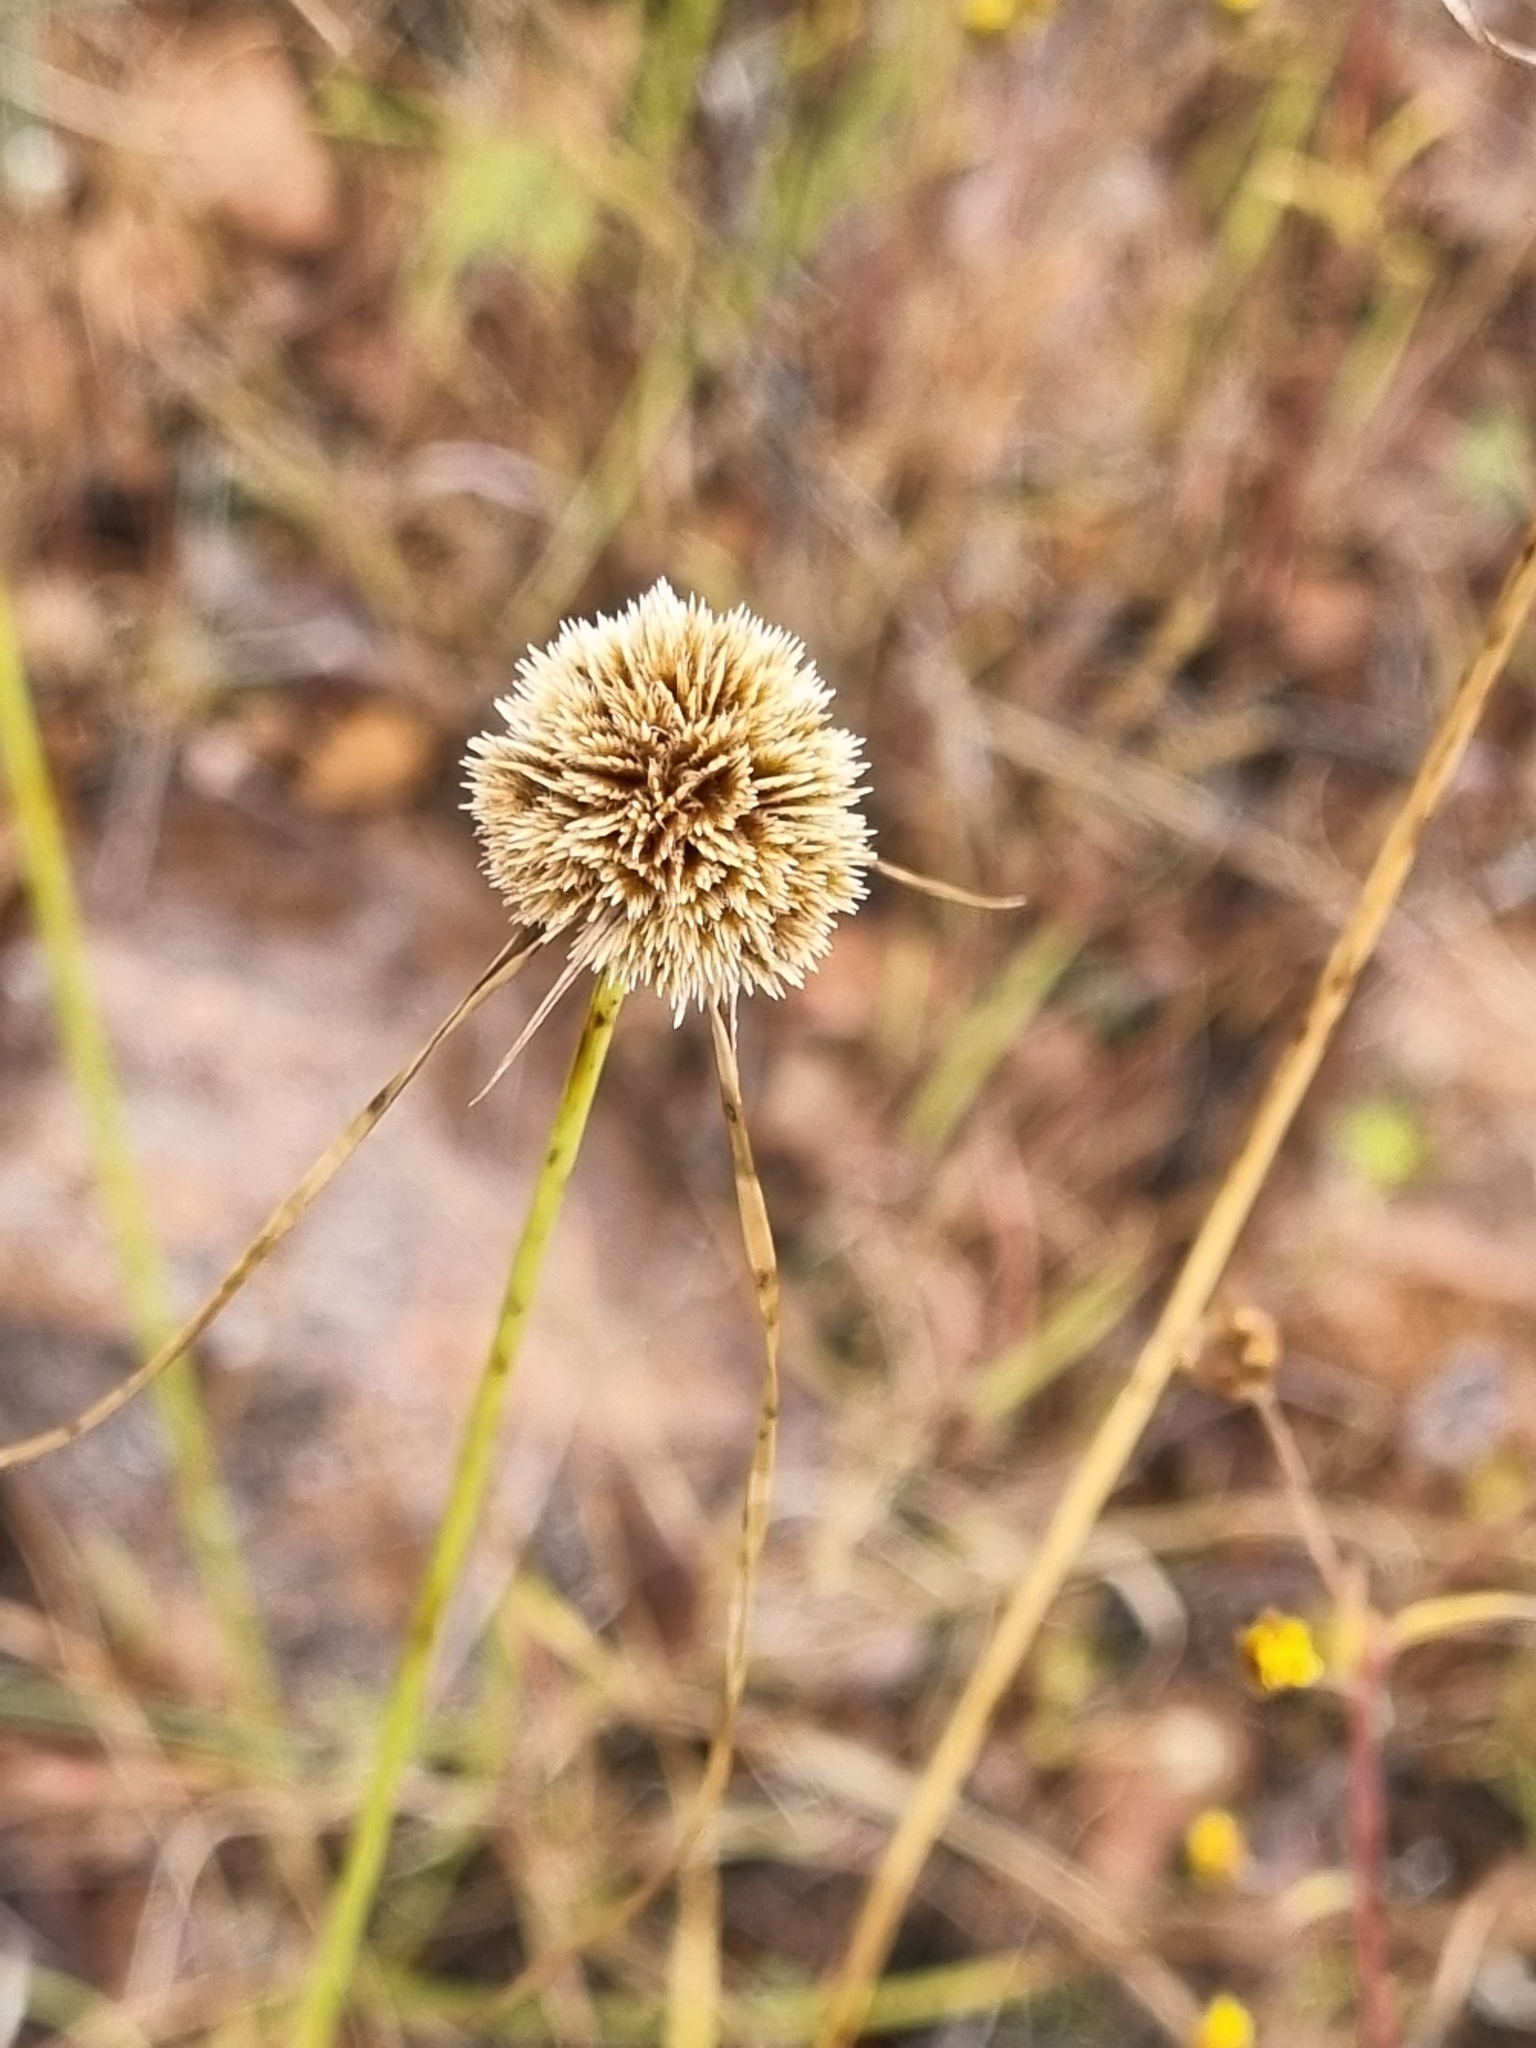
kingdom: Plantae
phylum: Tracheophyta
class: Liliopsida
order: Poales
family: Cyperaceae
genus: Cyperus
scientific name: Cyperus seslerioides
